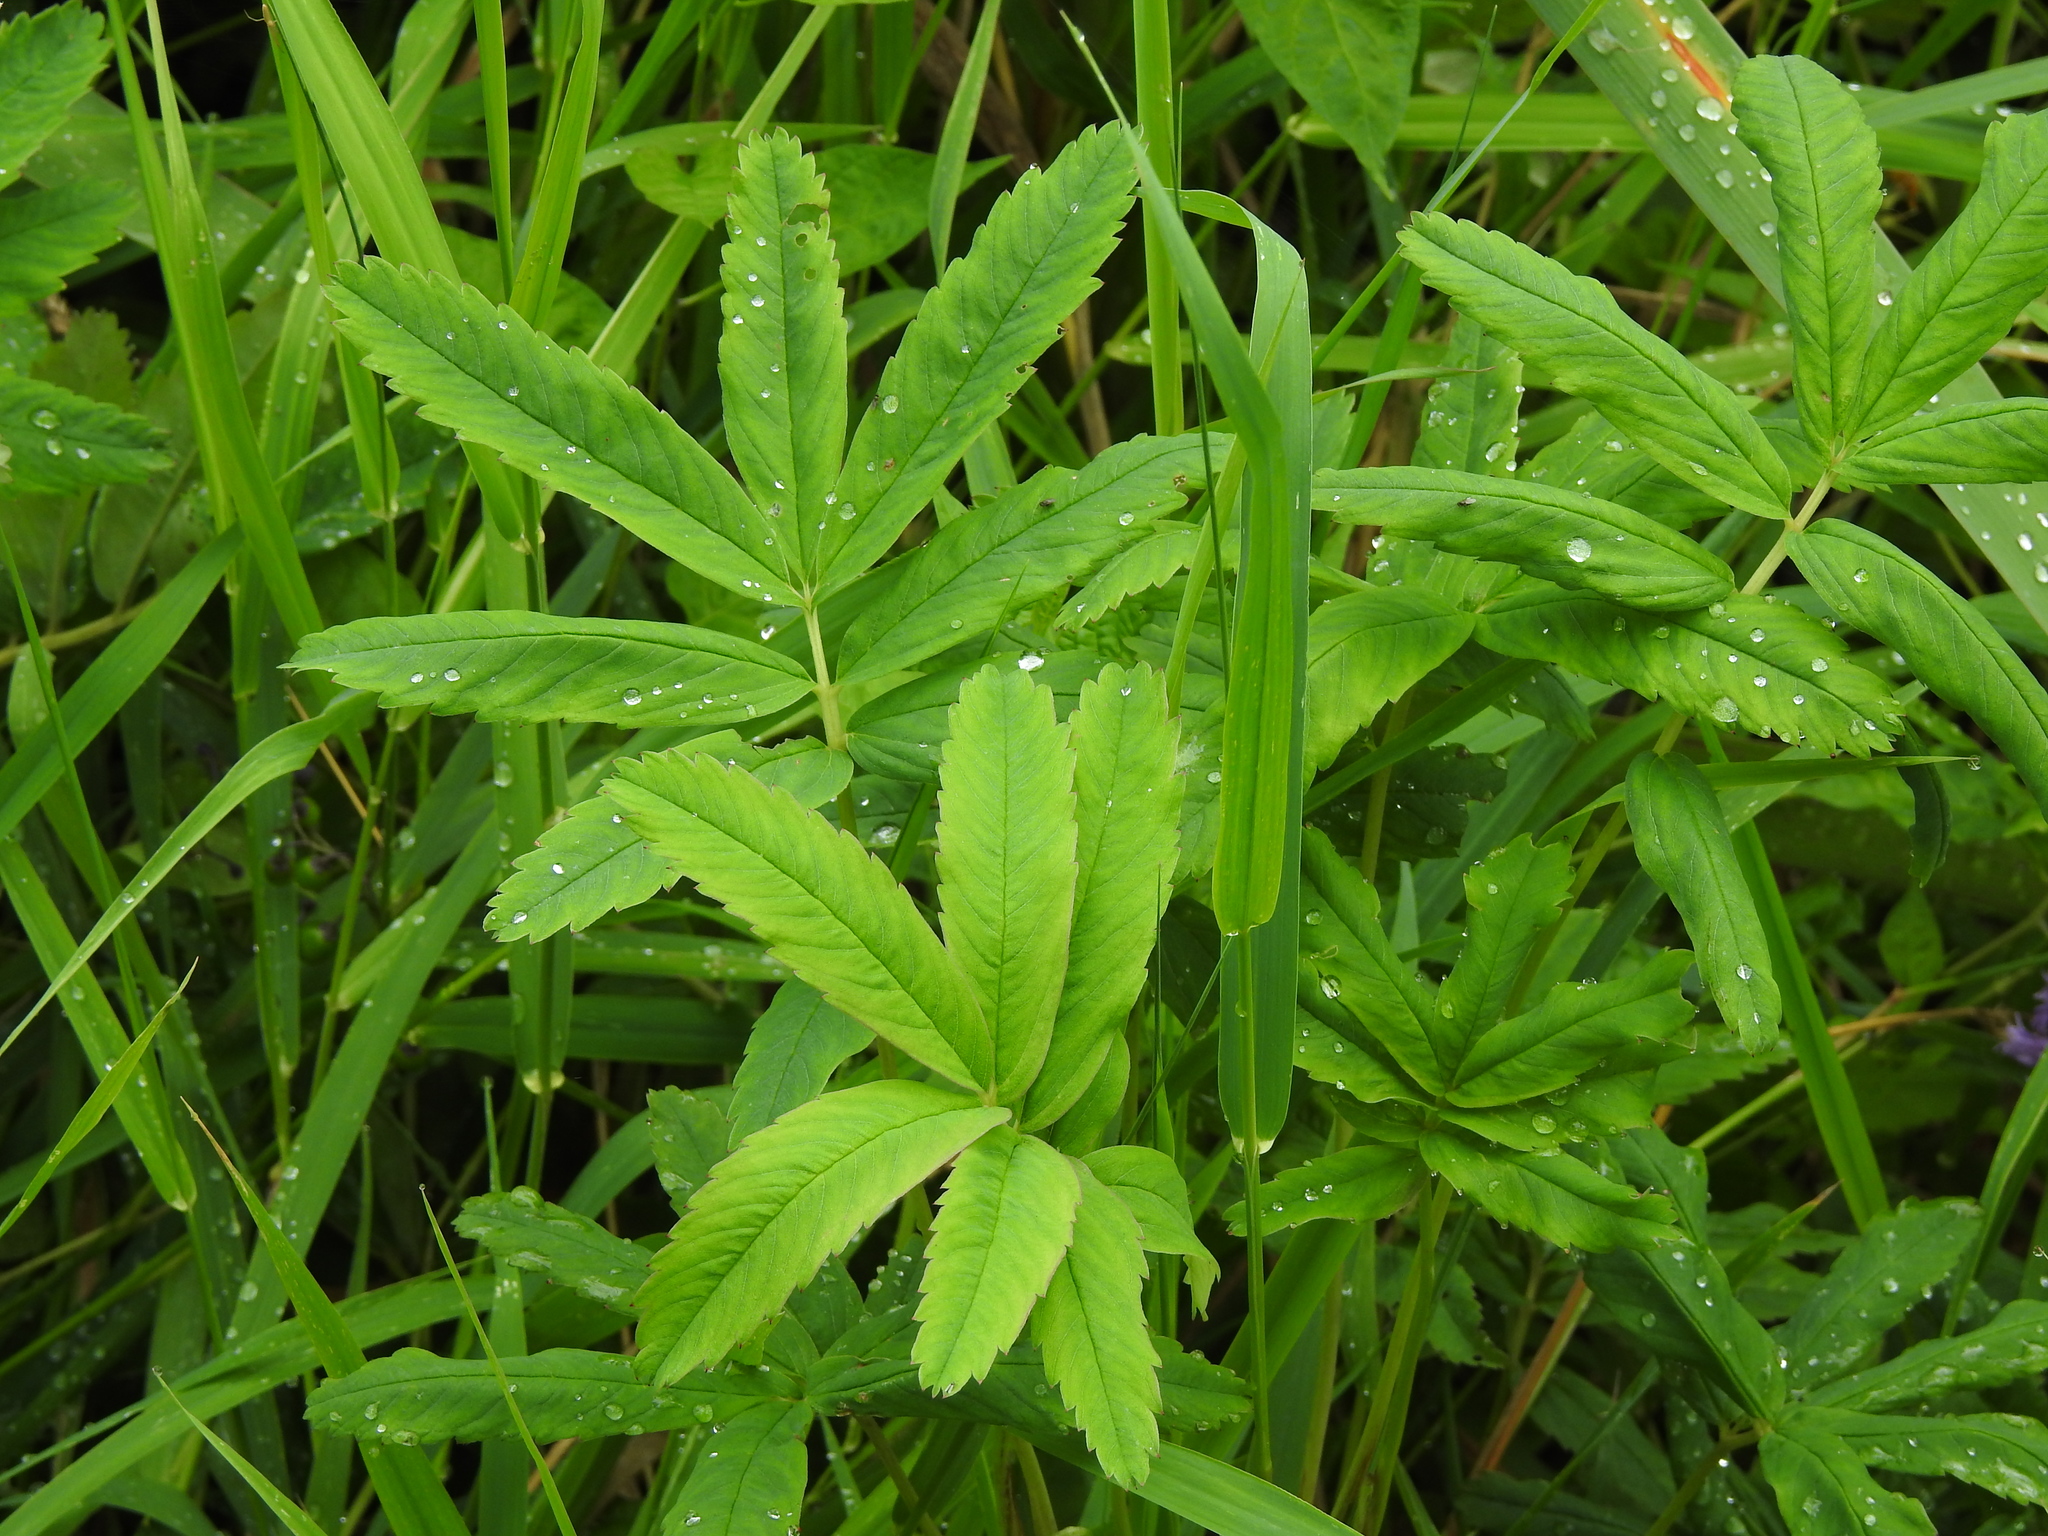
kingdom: Plantae
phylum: Tracheophyta
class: Magnoliopsida
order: Rosales
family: Rosaceae
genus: Comarum
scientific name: Comarum palustre
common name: Marsh cinquefoil
